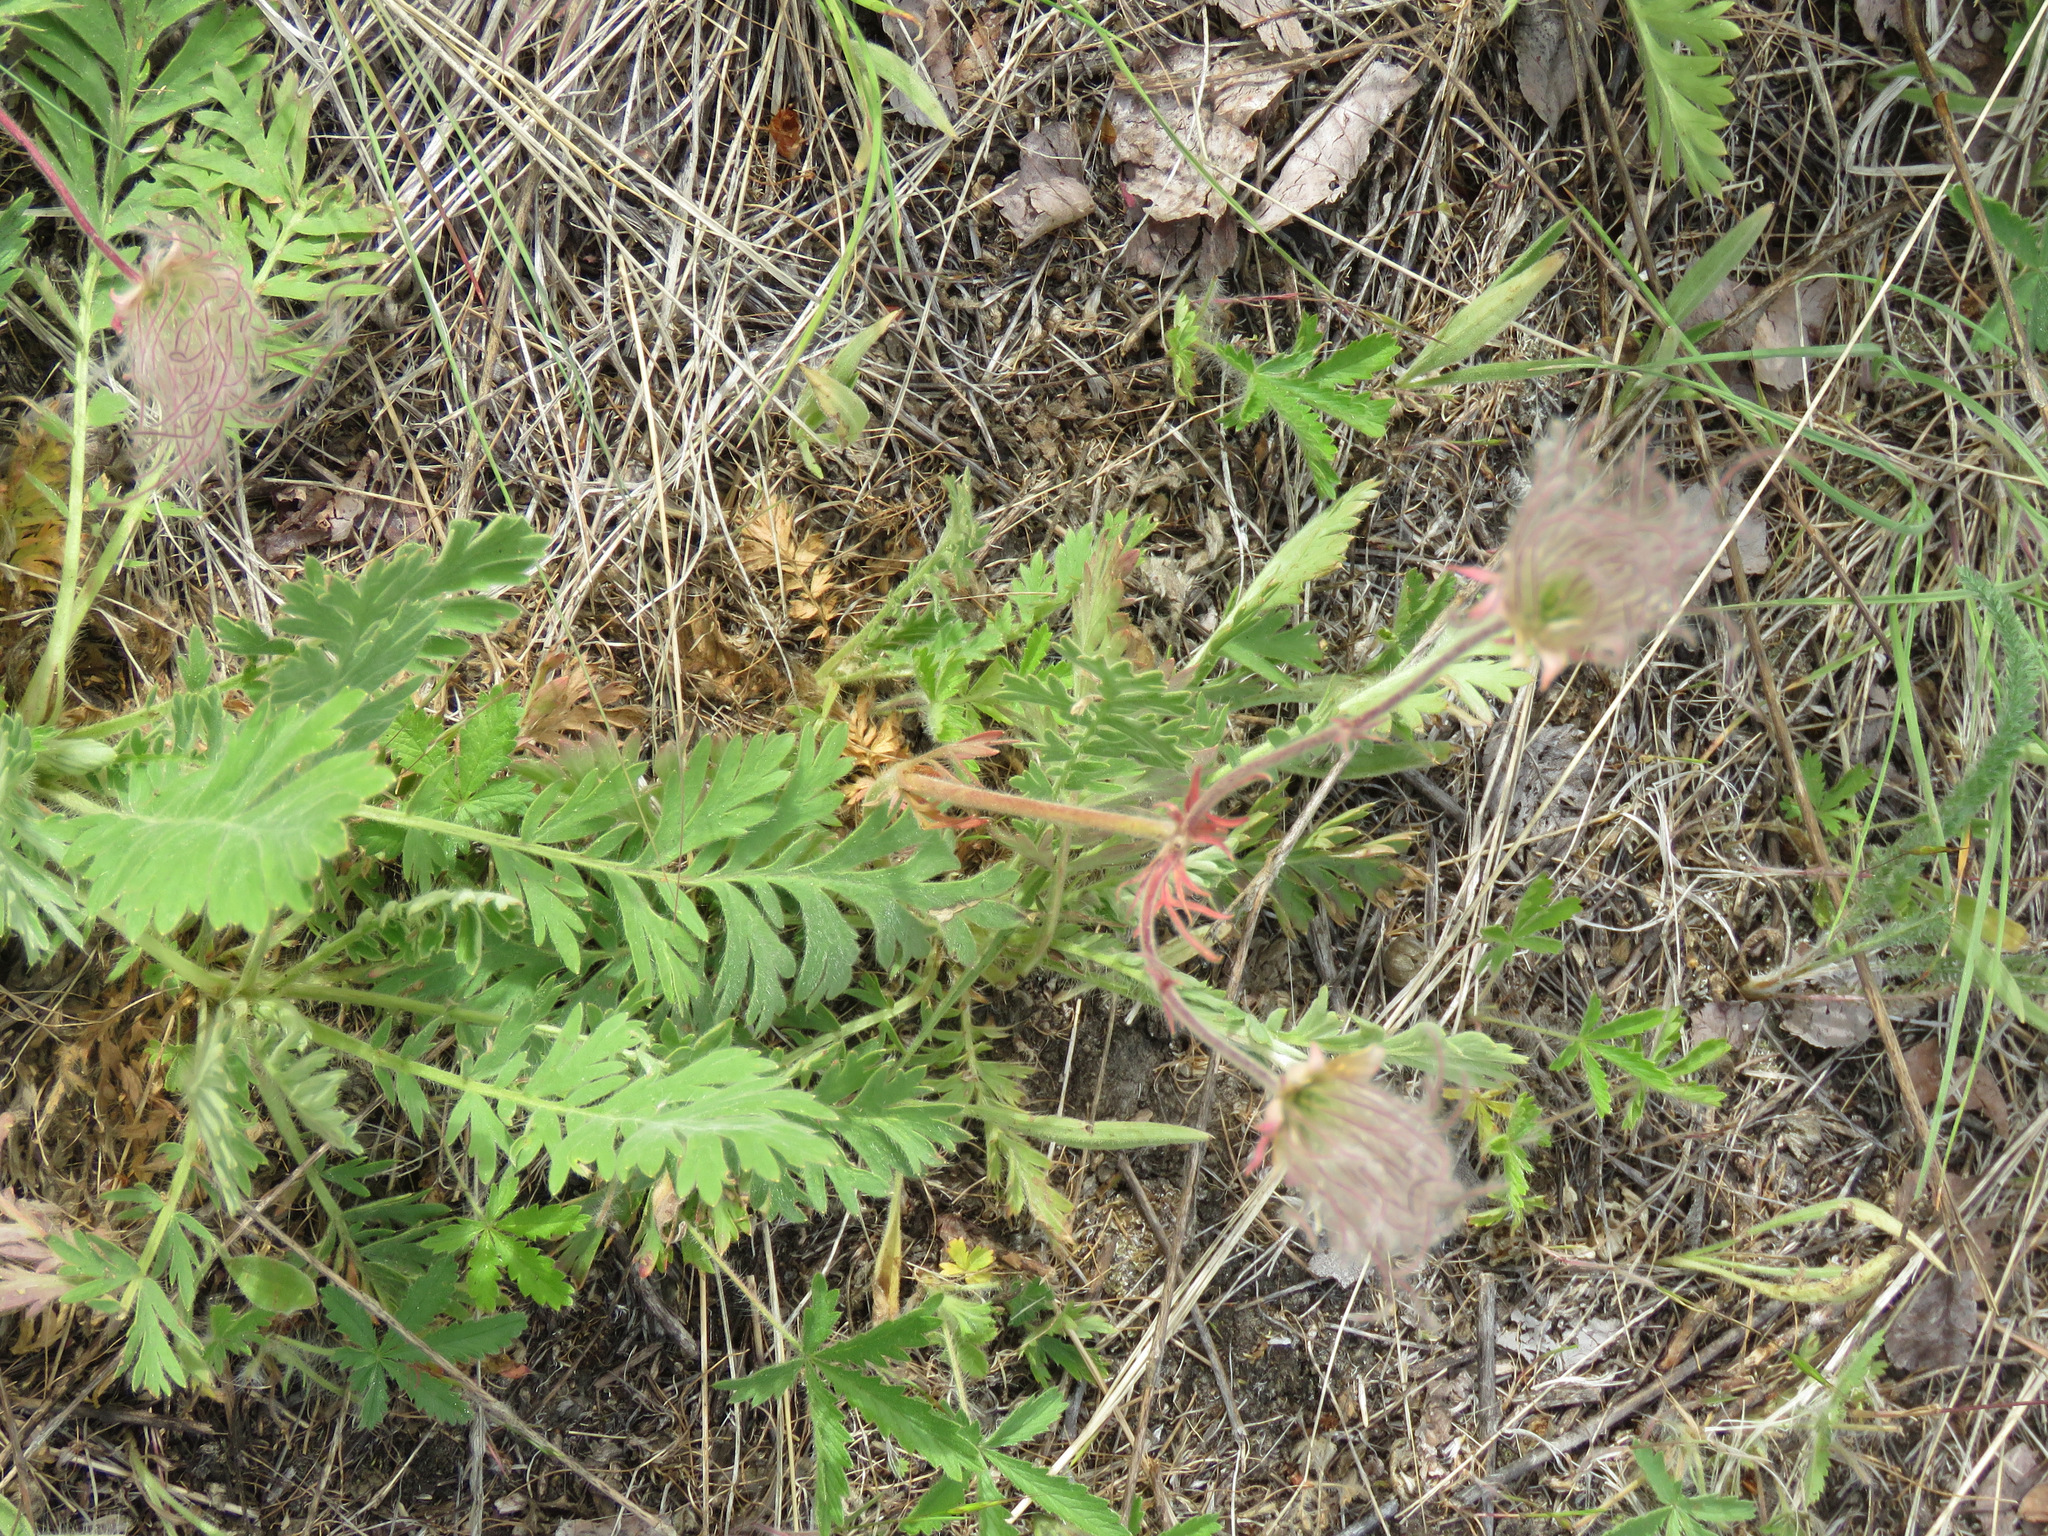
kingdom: Plantae
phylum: Tracheophyta
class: Magnoliopsida
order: Rosales
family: Rosaceae
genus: Geum
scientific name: Geum triflorum
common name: Old man's whiskers
